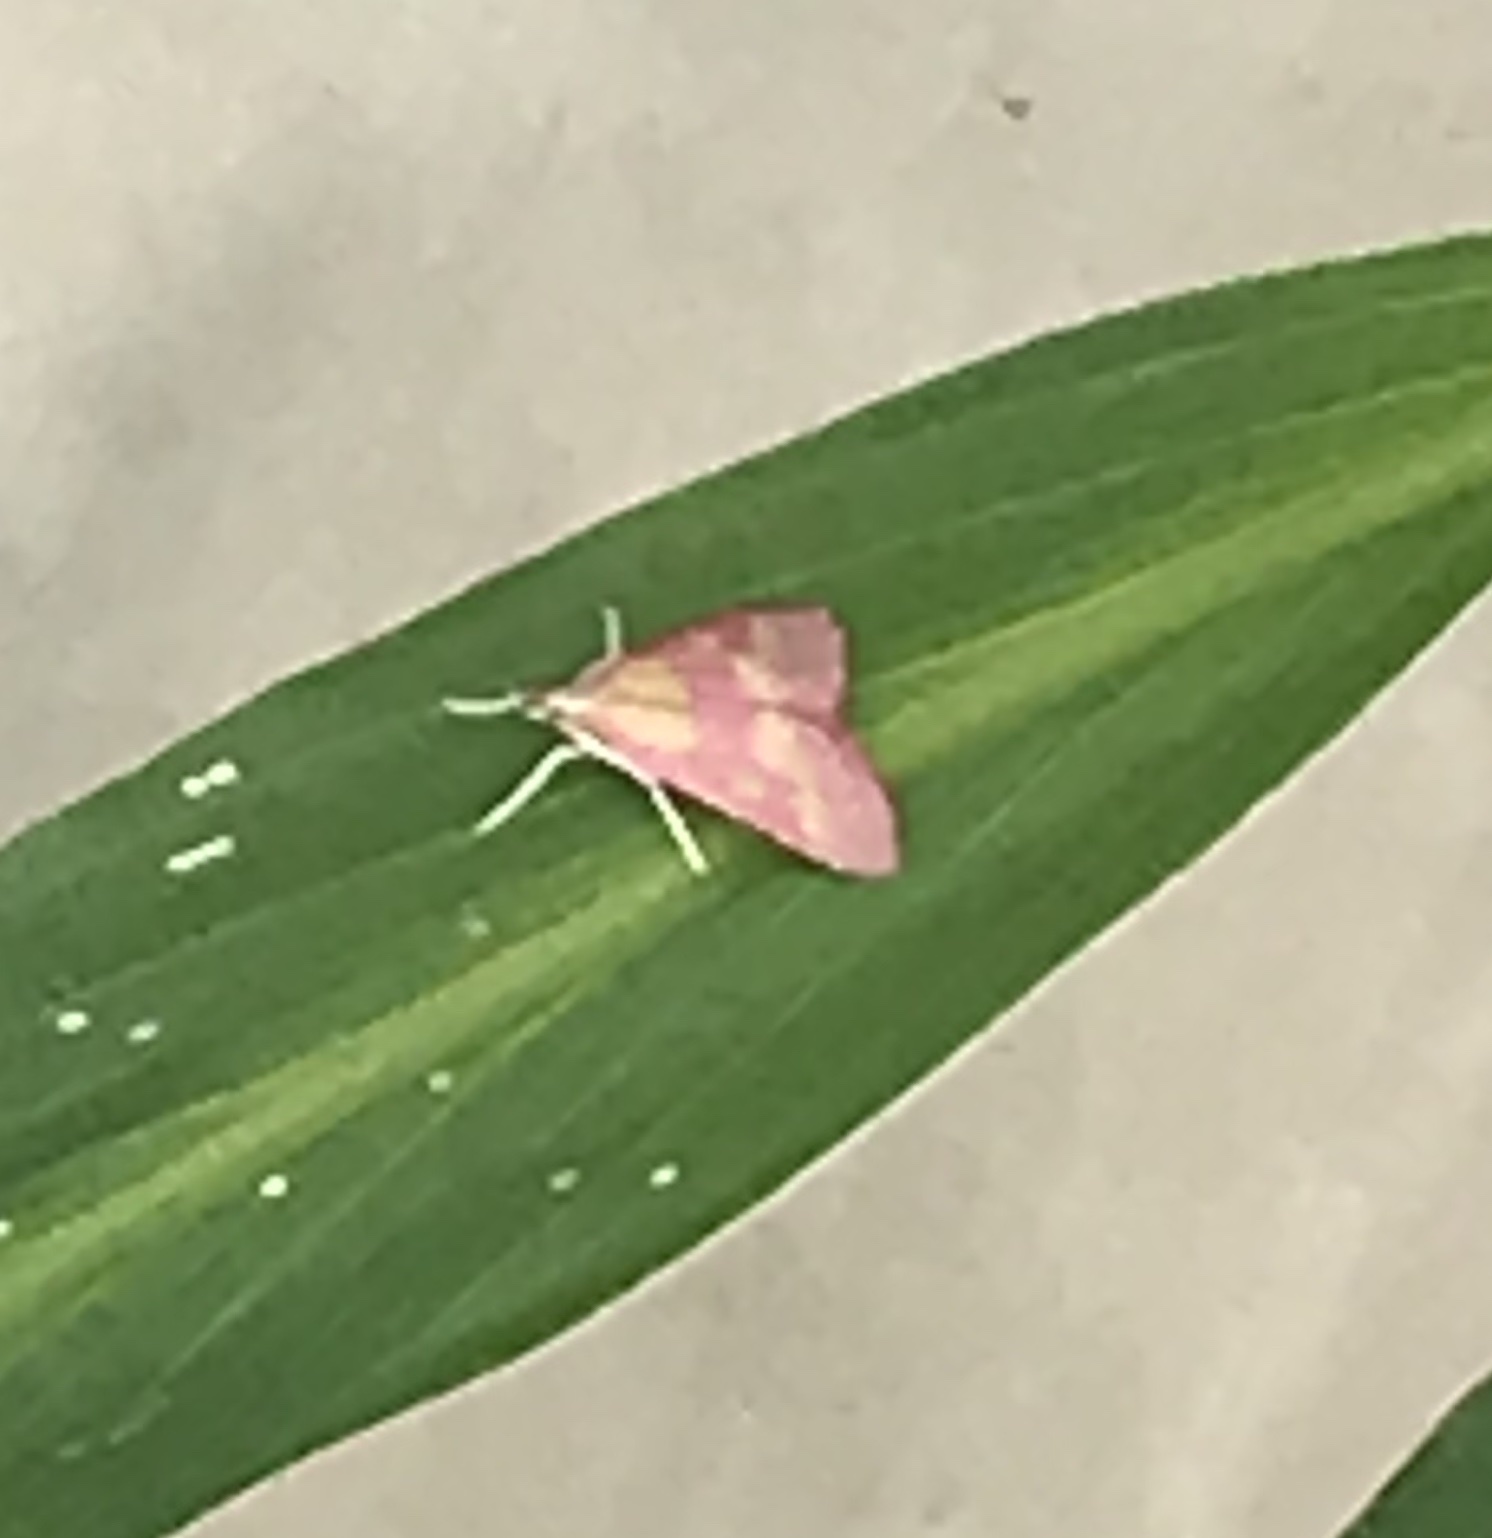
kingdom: Animalia
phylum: Arthropoda
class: Insecta
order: Lepidoptera
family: Crambidae
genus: Pyrausta
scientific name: Pyrausta laticlavia
